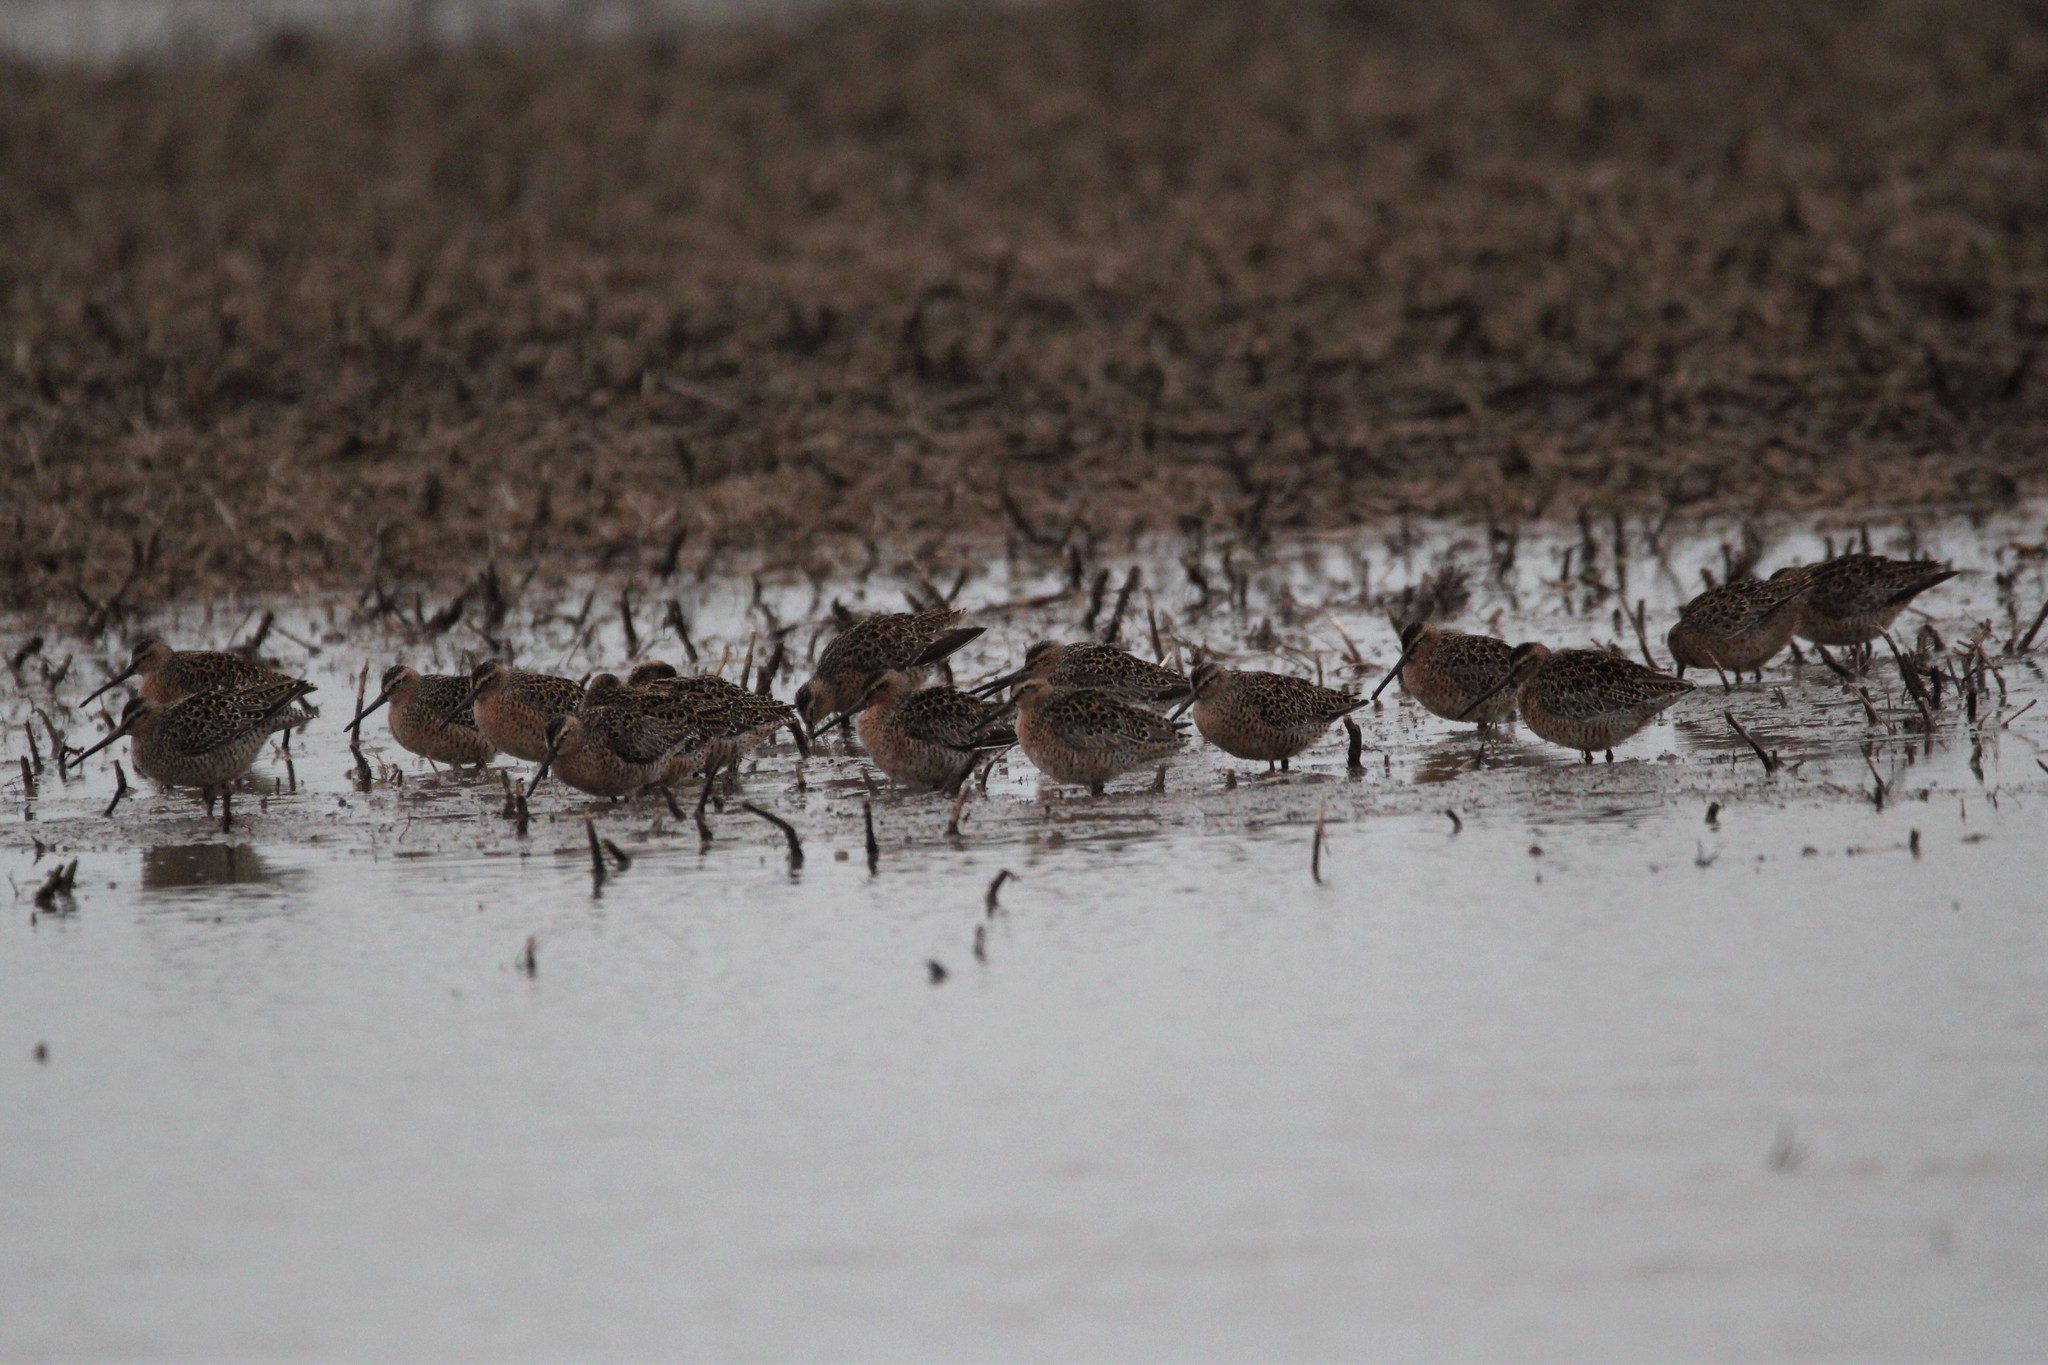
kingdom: Animalia
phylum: Chordata
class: Aves
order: Charadriiformes
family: Scolopacidae
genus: Limnodromus
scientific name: Limnodromus griseus
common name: Short-billed dowitcher
